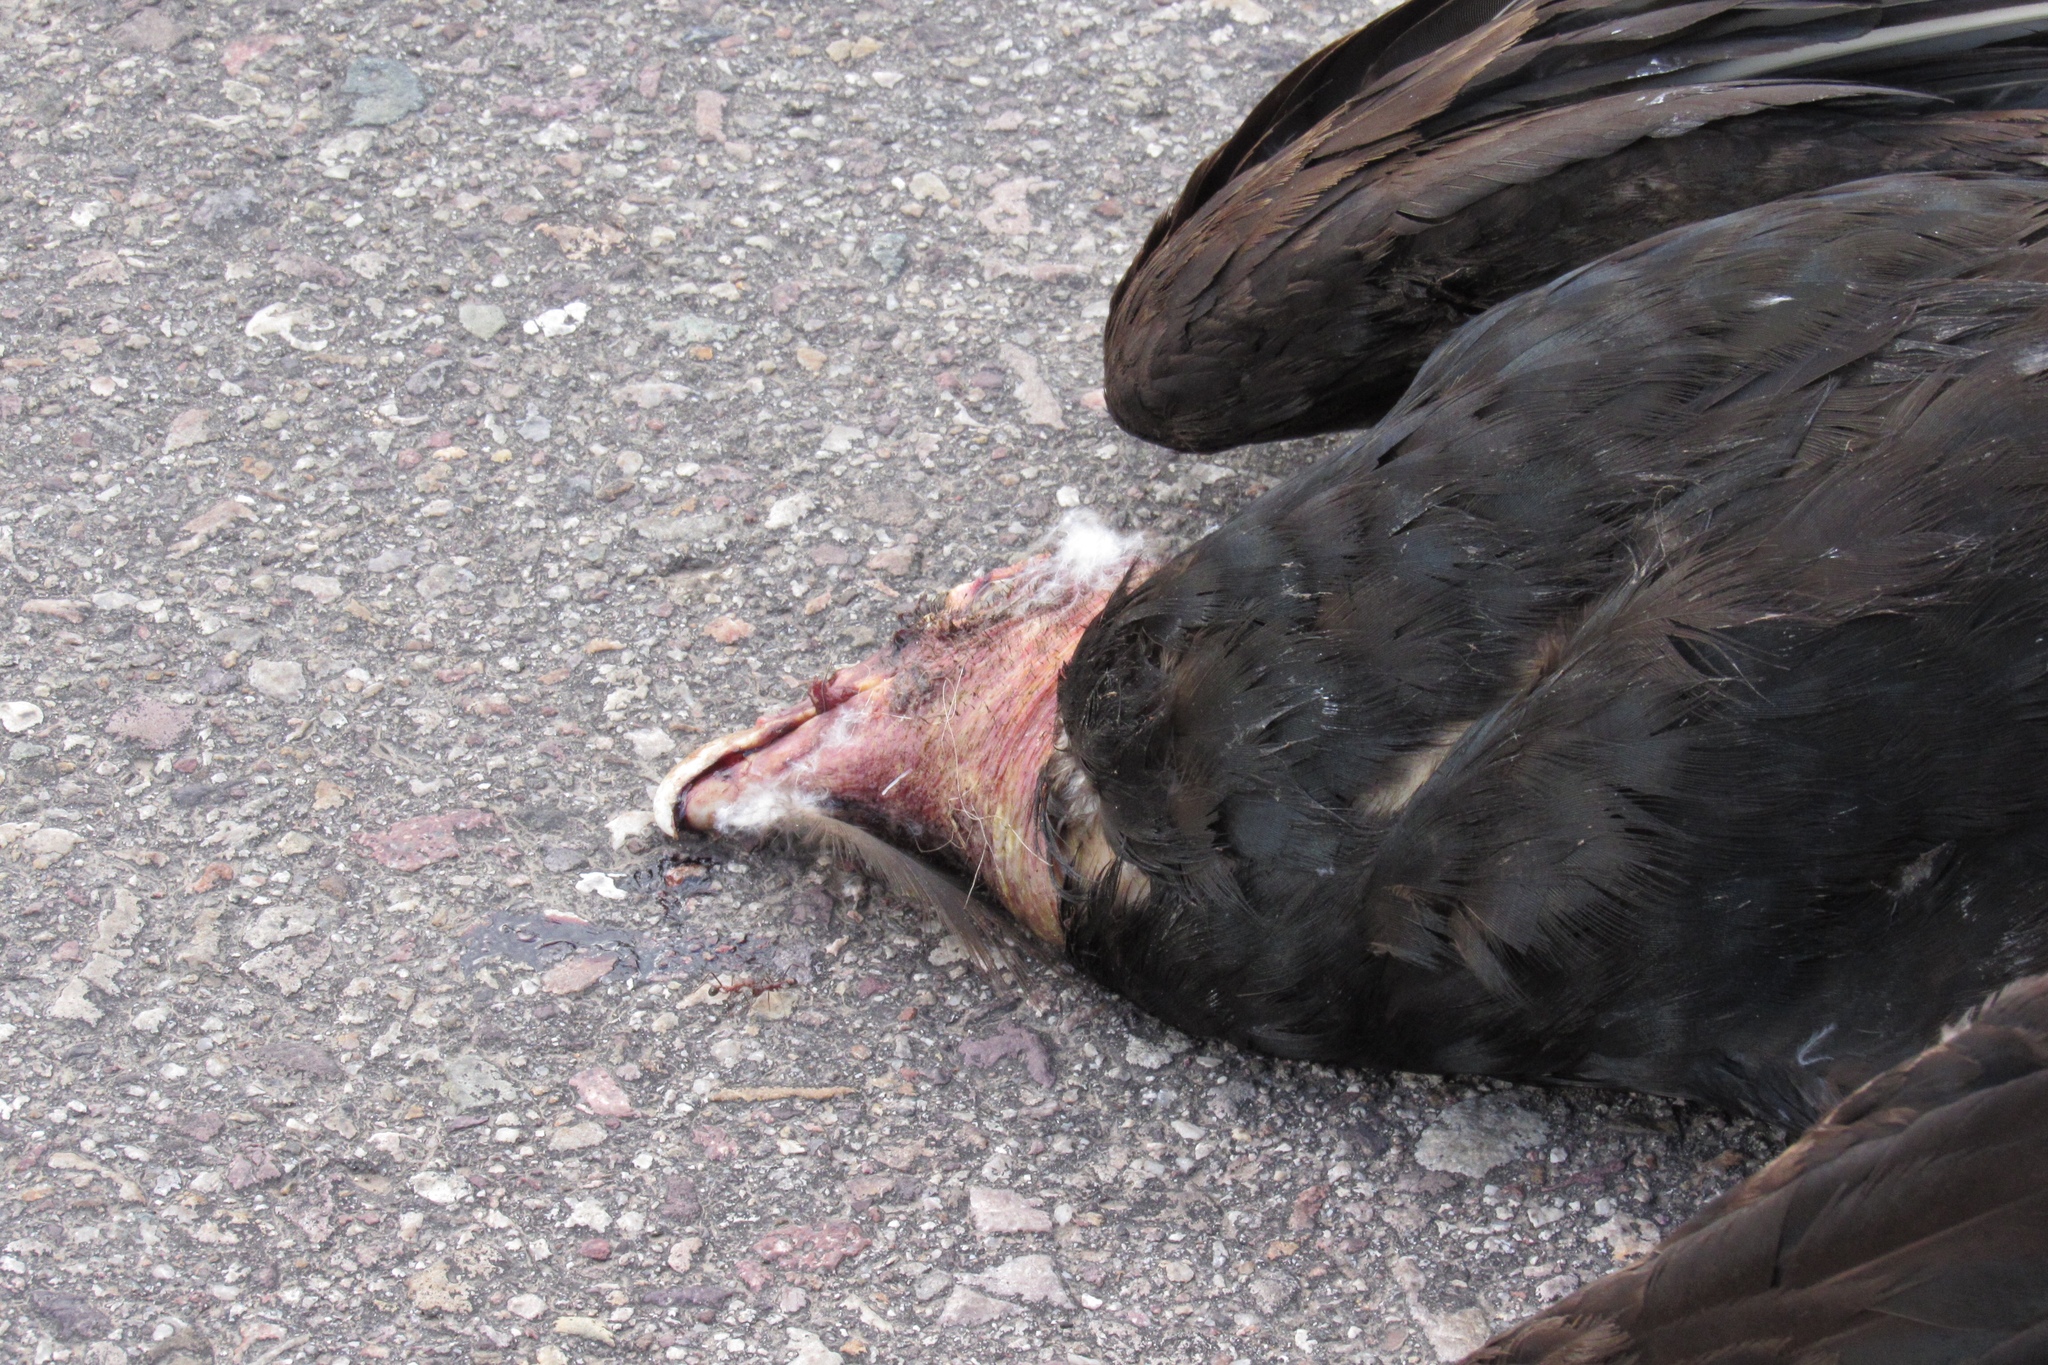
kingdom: Animalia
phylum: Chordata
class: Aves
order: Accipitriformes
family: Cathartidae
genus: Cathartes
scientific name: Cathartes aura
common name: Turkey vulture
